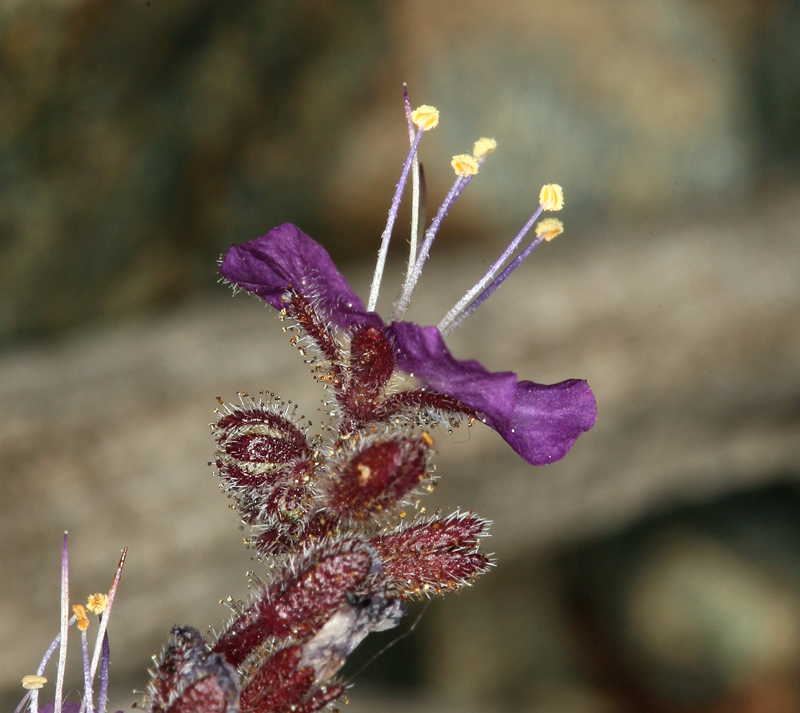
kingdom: Plantae
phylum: Tracheophyta
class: Magnoliopsida
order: Boraginales
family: Hydrophyllaceae
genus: Phacelia
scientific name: Phacelia greenei
